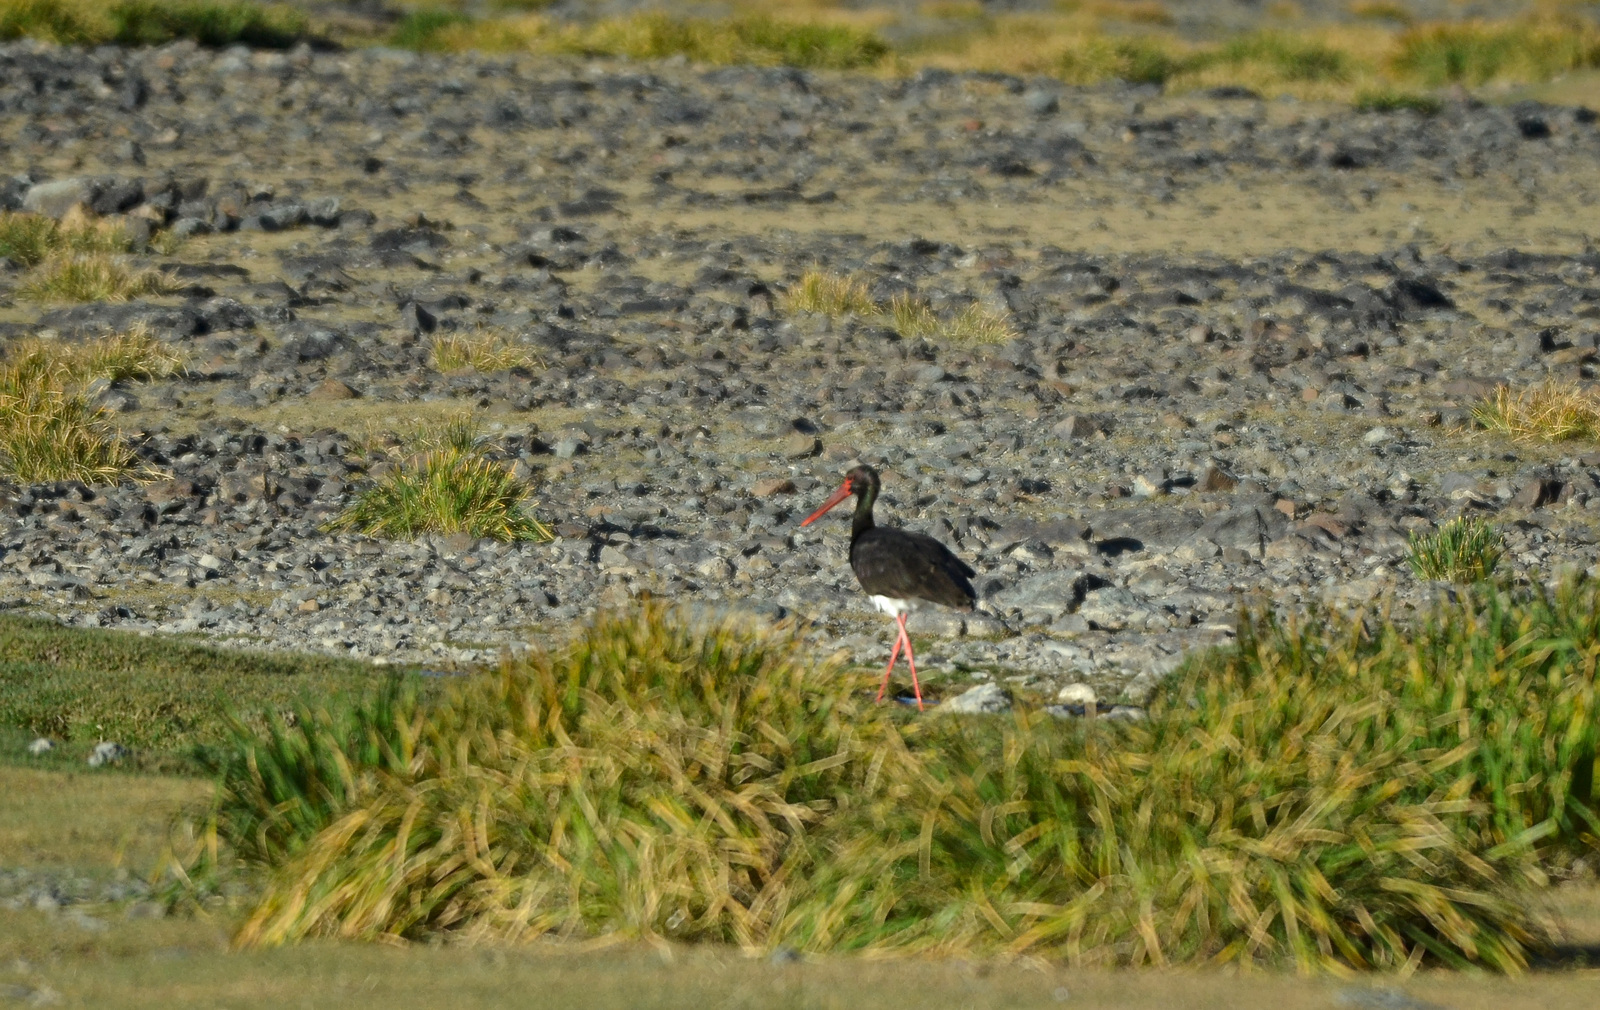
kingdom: Animalia
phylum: Chordata
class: Aves
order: Ciconiiformes
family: Ciconiidae
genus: Ciconia
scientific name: Ciconia nigra
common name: Black stork
